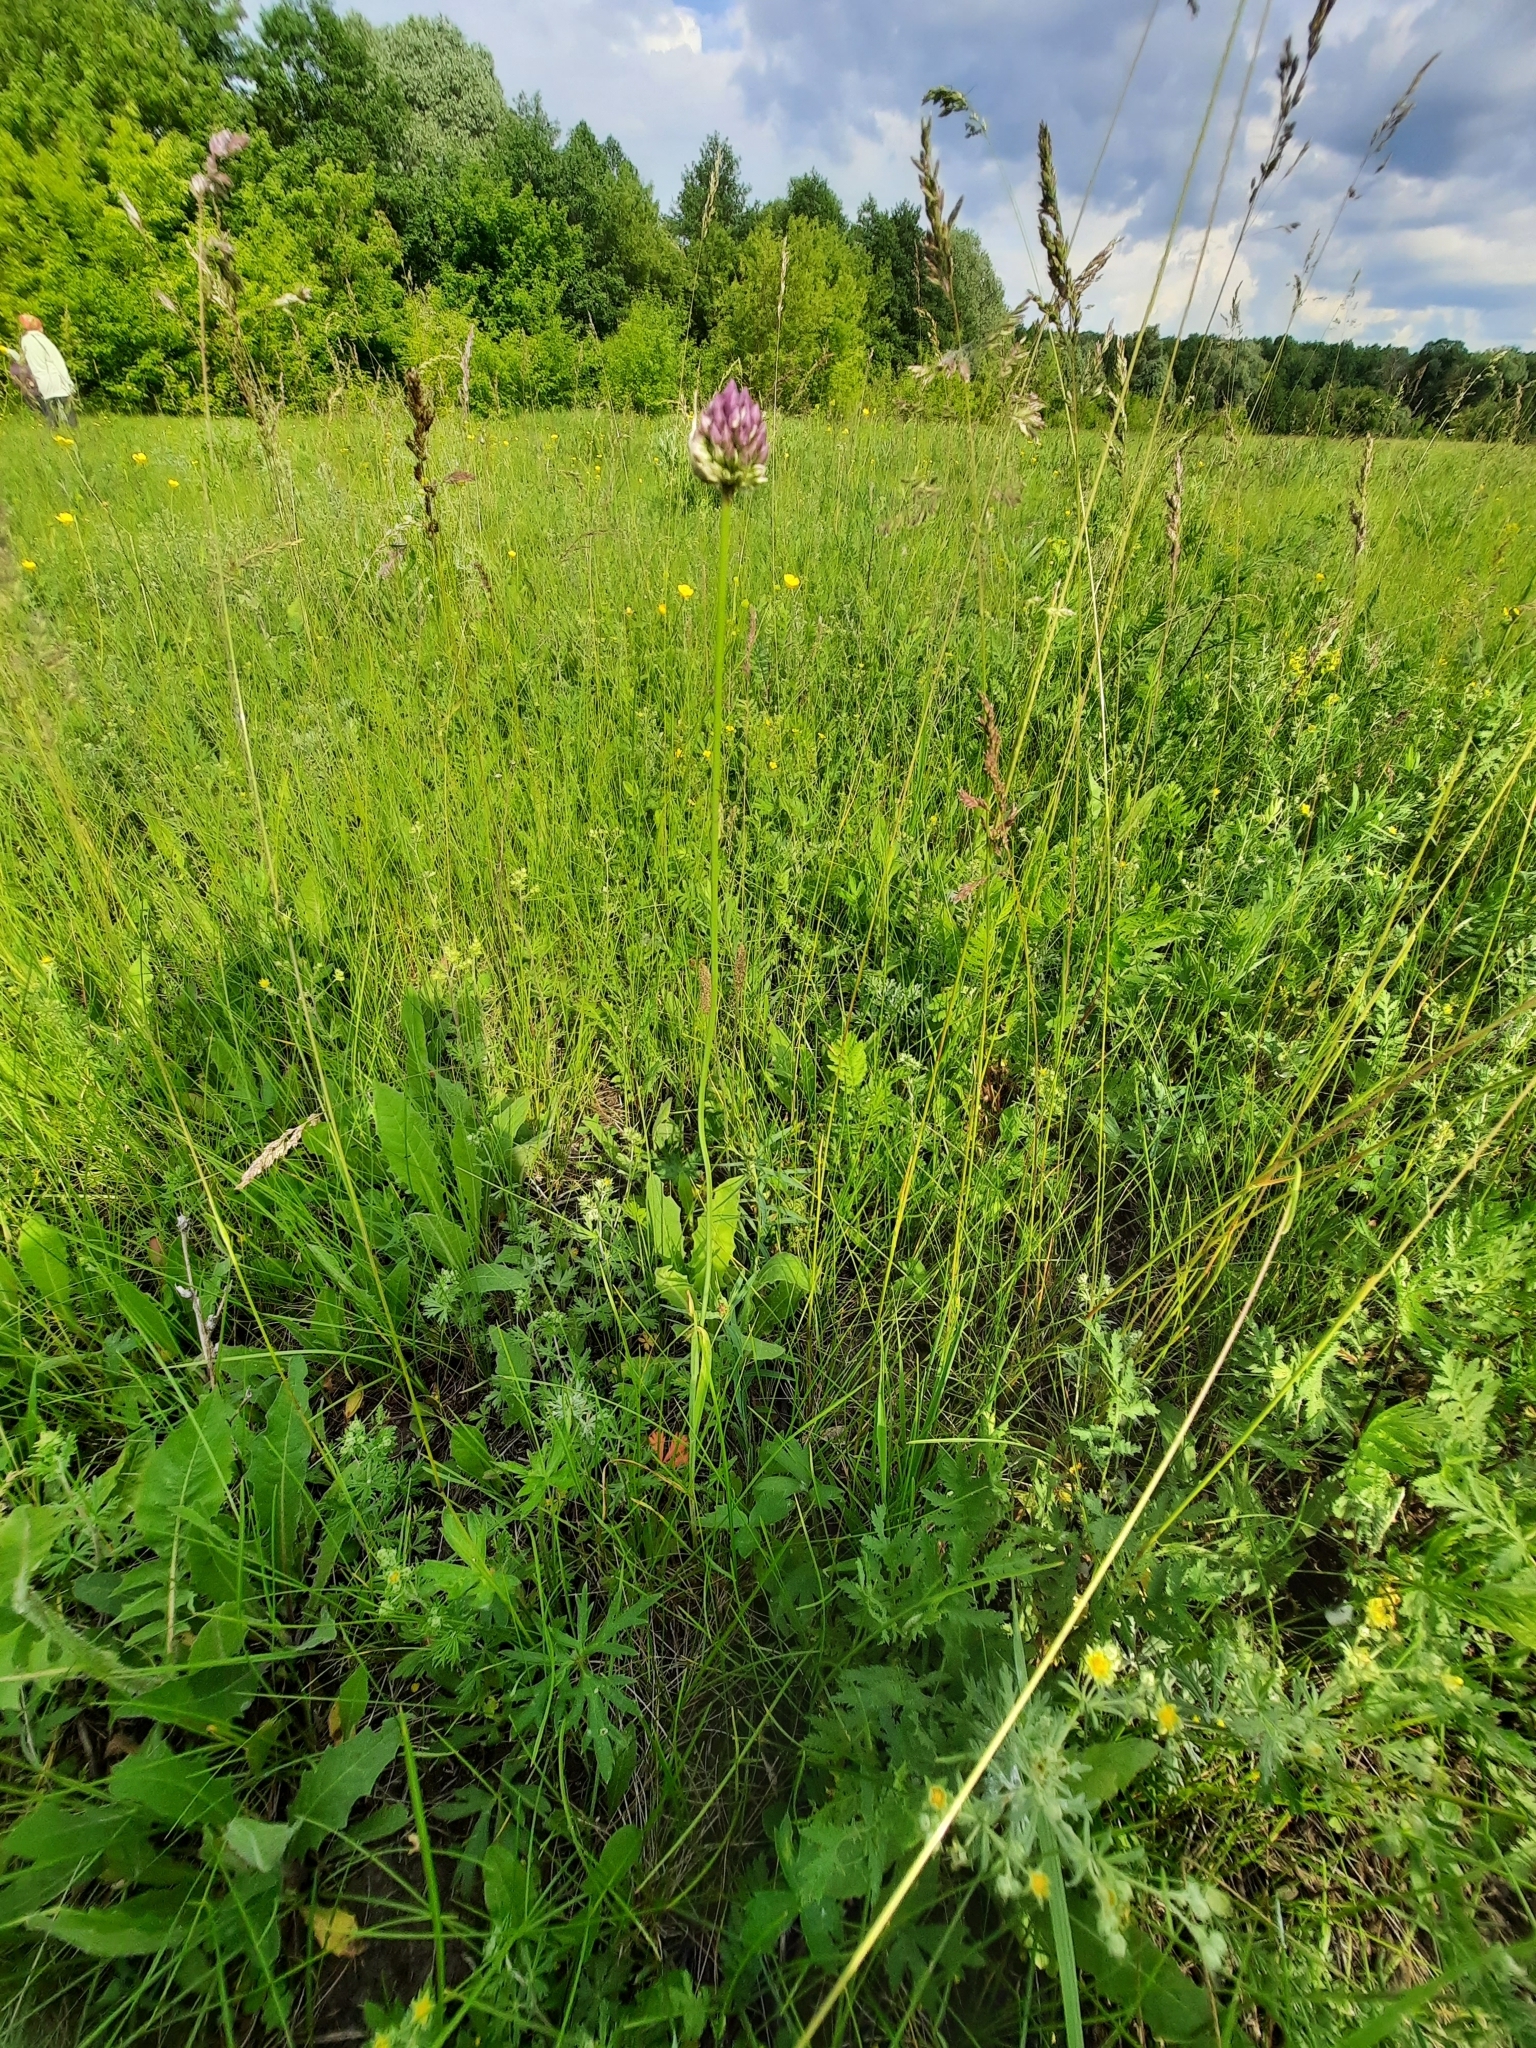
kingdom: Plantae
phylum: Tracheophyta
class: Liliopsida
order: Asparagales
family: Amaryllidaceae
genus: Allium
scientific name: Allium rotundum
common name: Sand leek
